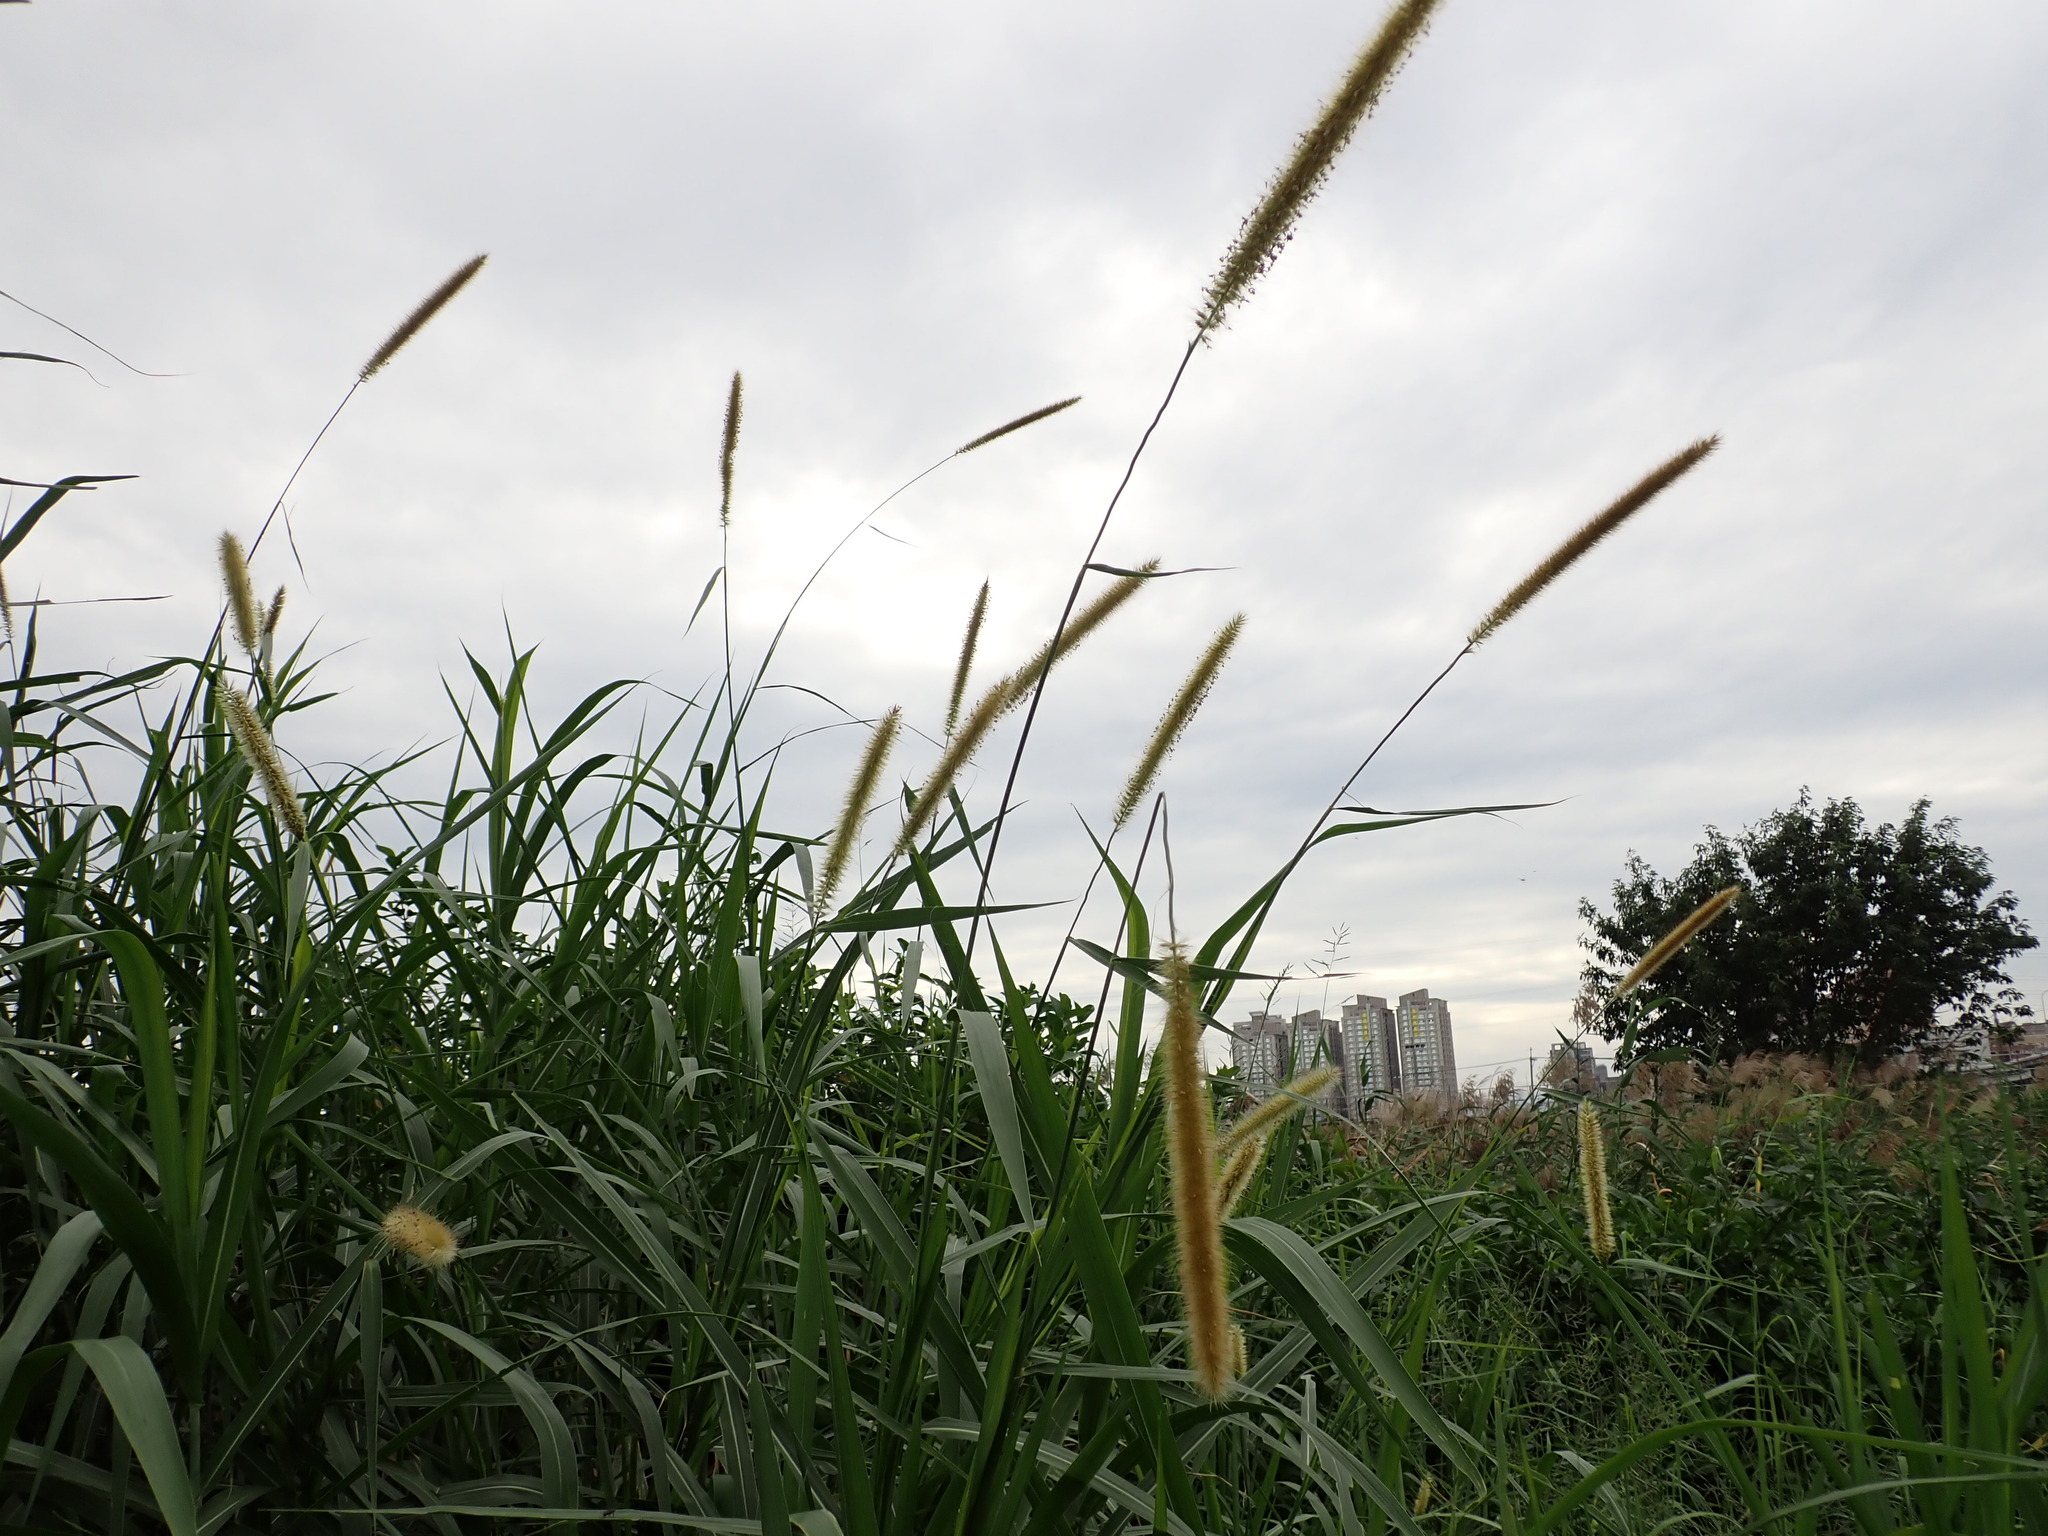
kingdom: Plantae
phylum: Tracheophyta
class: Liliopsida
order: Poales
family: Poaceae
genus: Cenchrus
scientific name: Cenchrus purpureus
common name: Elephant grass
